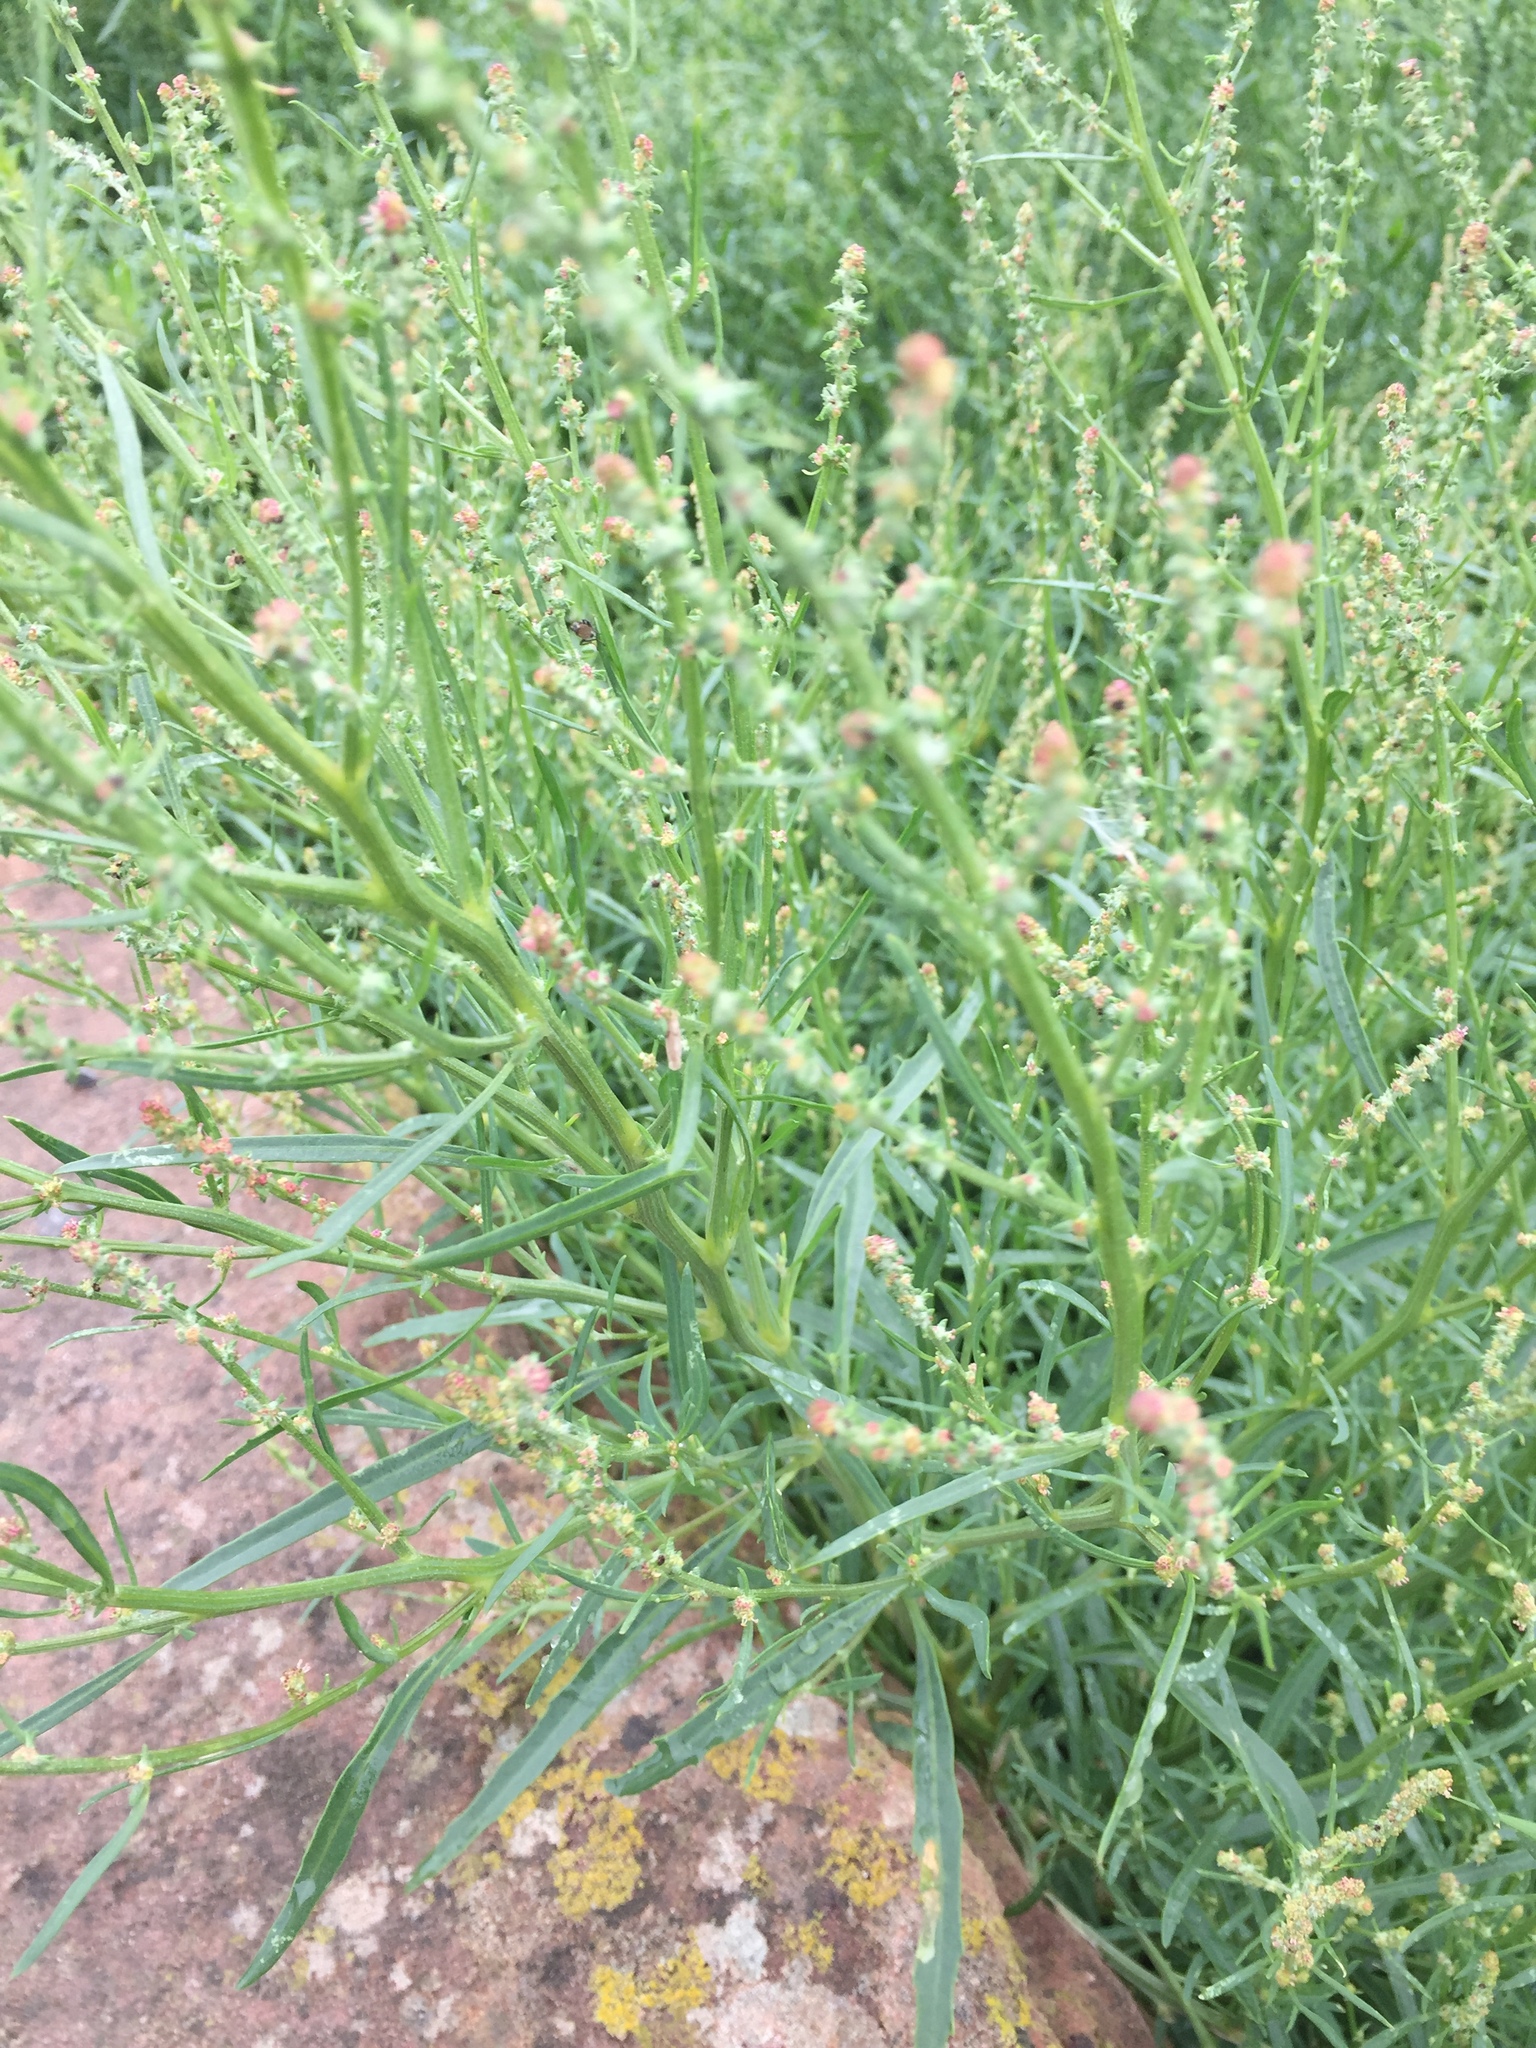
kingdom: Plantae
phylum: Tracheophyta
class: Magnoliopsida
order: Caryophyllales
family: Amaranthaceae
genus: Atriplex
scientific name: Atriplex littoralis
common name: Grass-leaved orache
